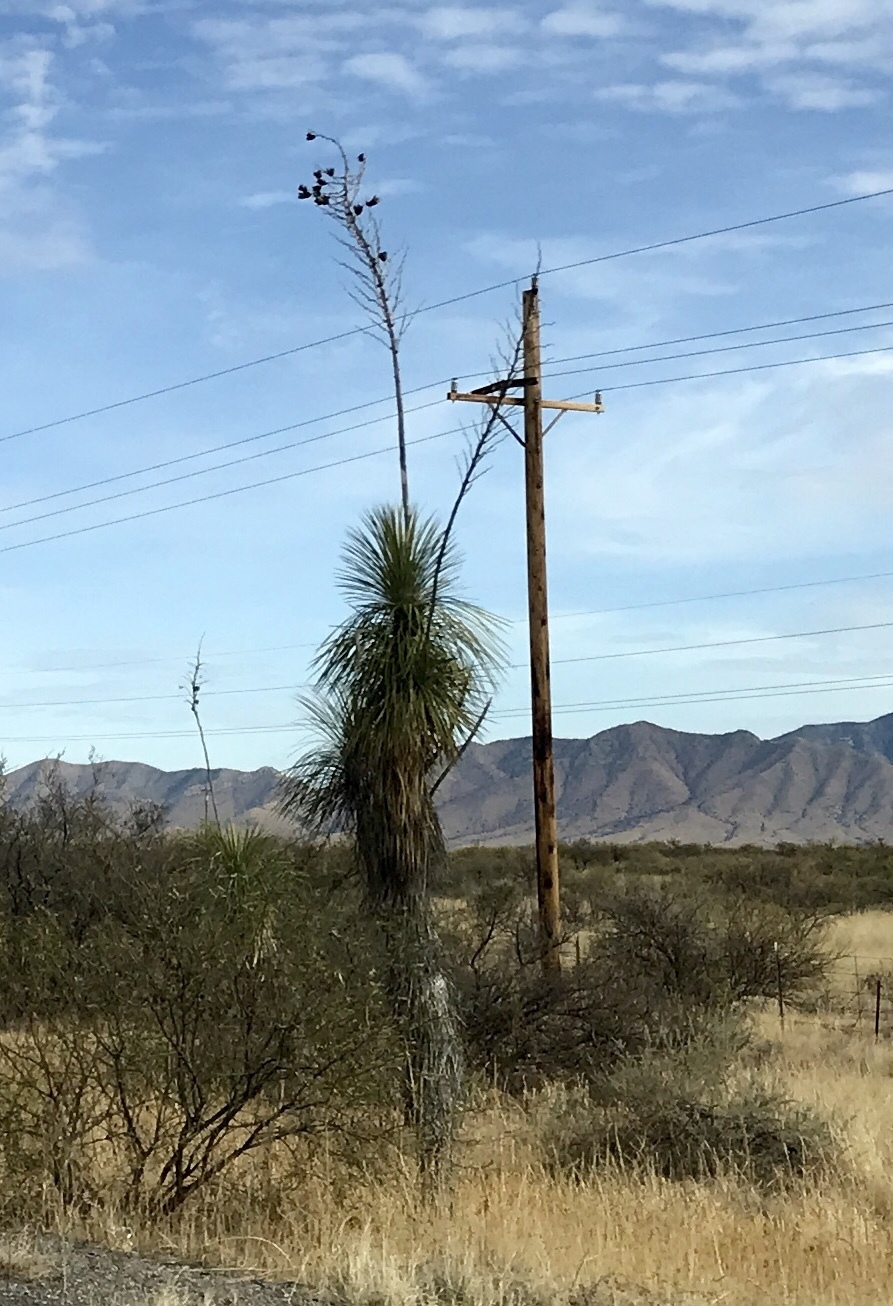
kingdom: Plantae
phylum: Tracheophyta
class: Liliopsida
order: Asparagales
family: Asparagaceae
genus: Yucca
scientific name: Yucca elata
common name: Palmella
